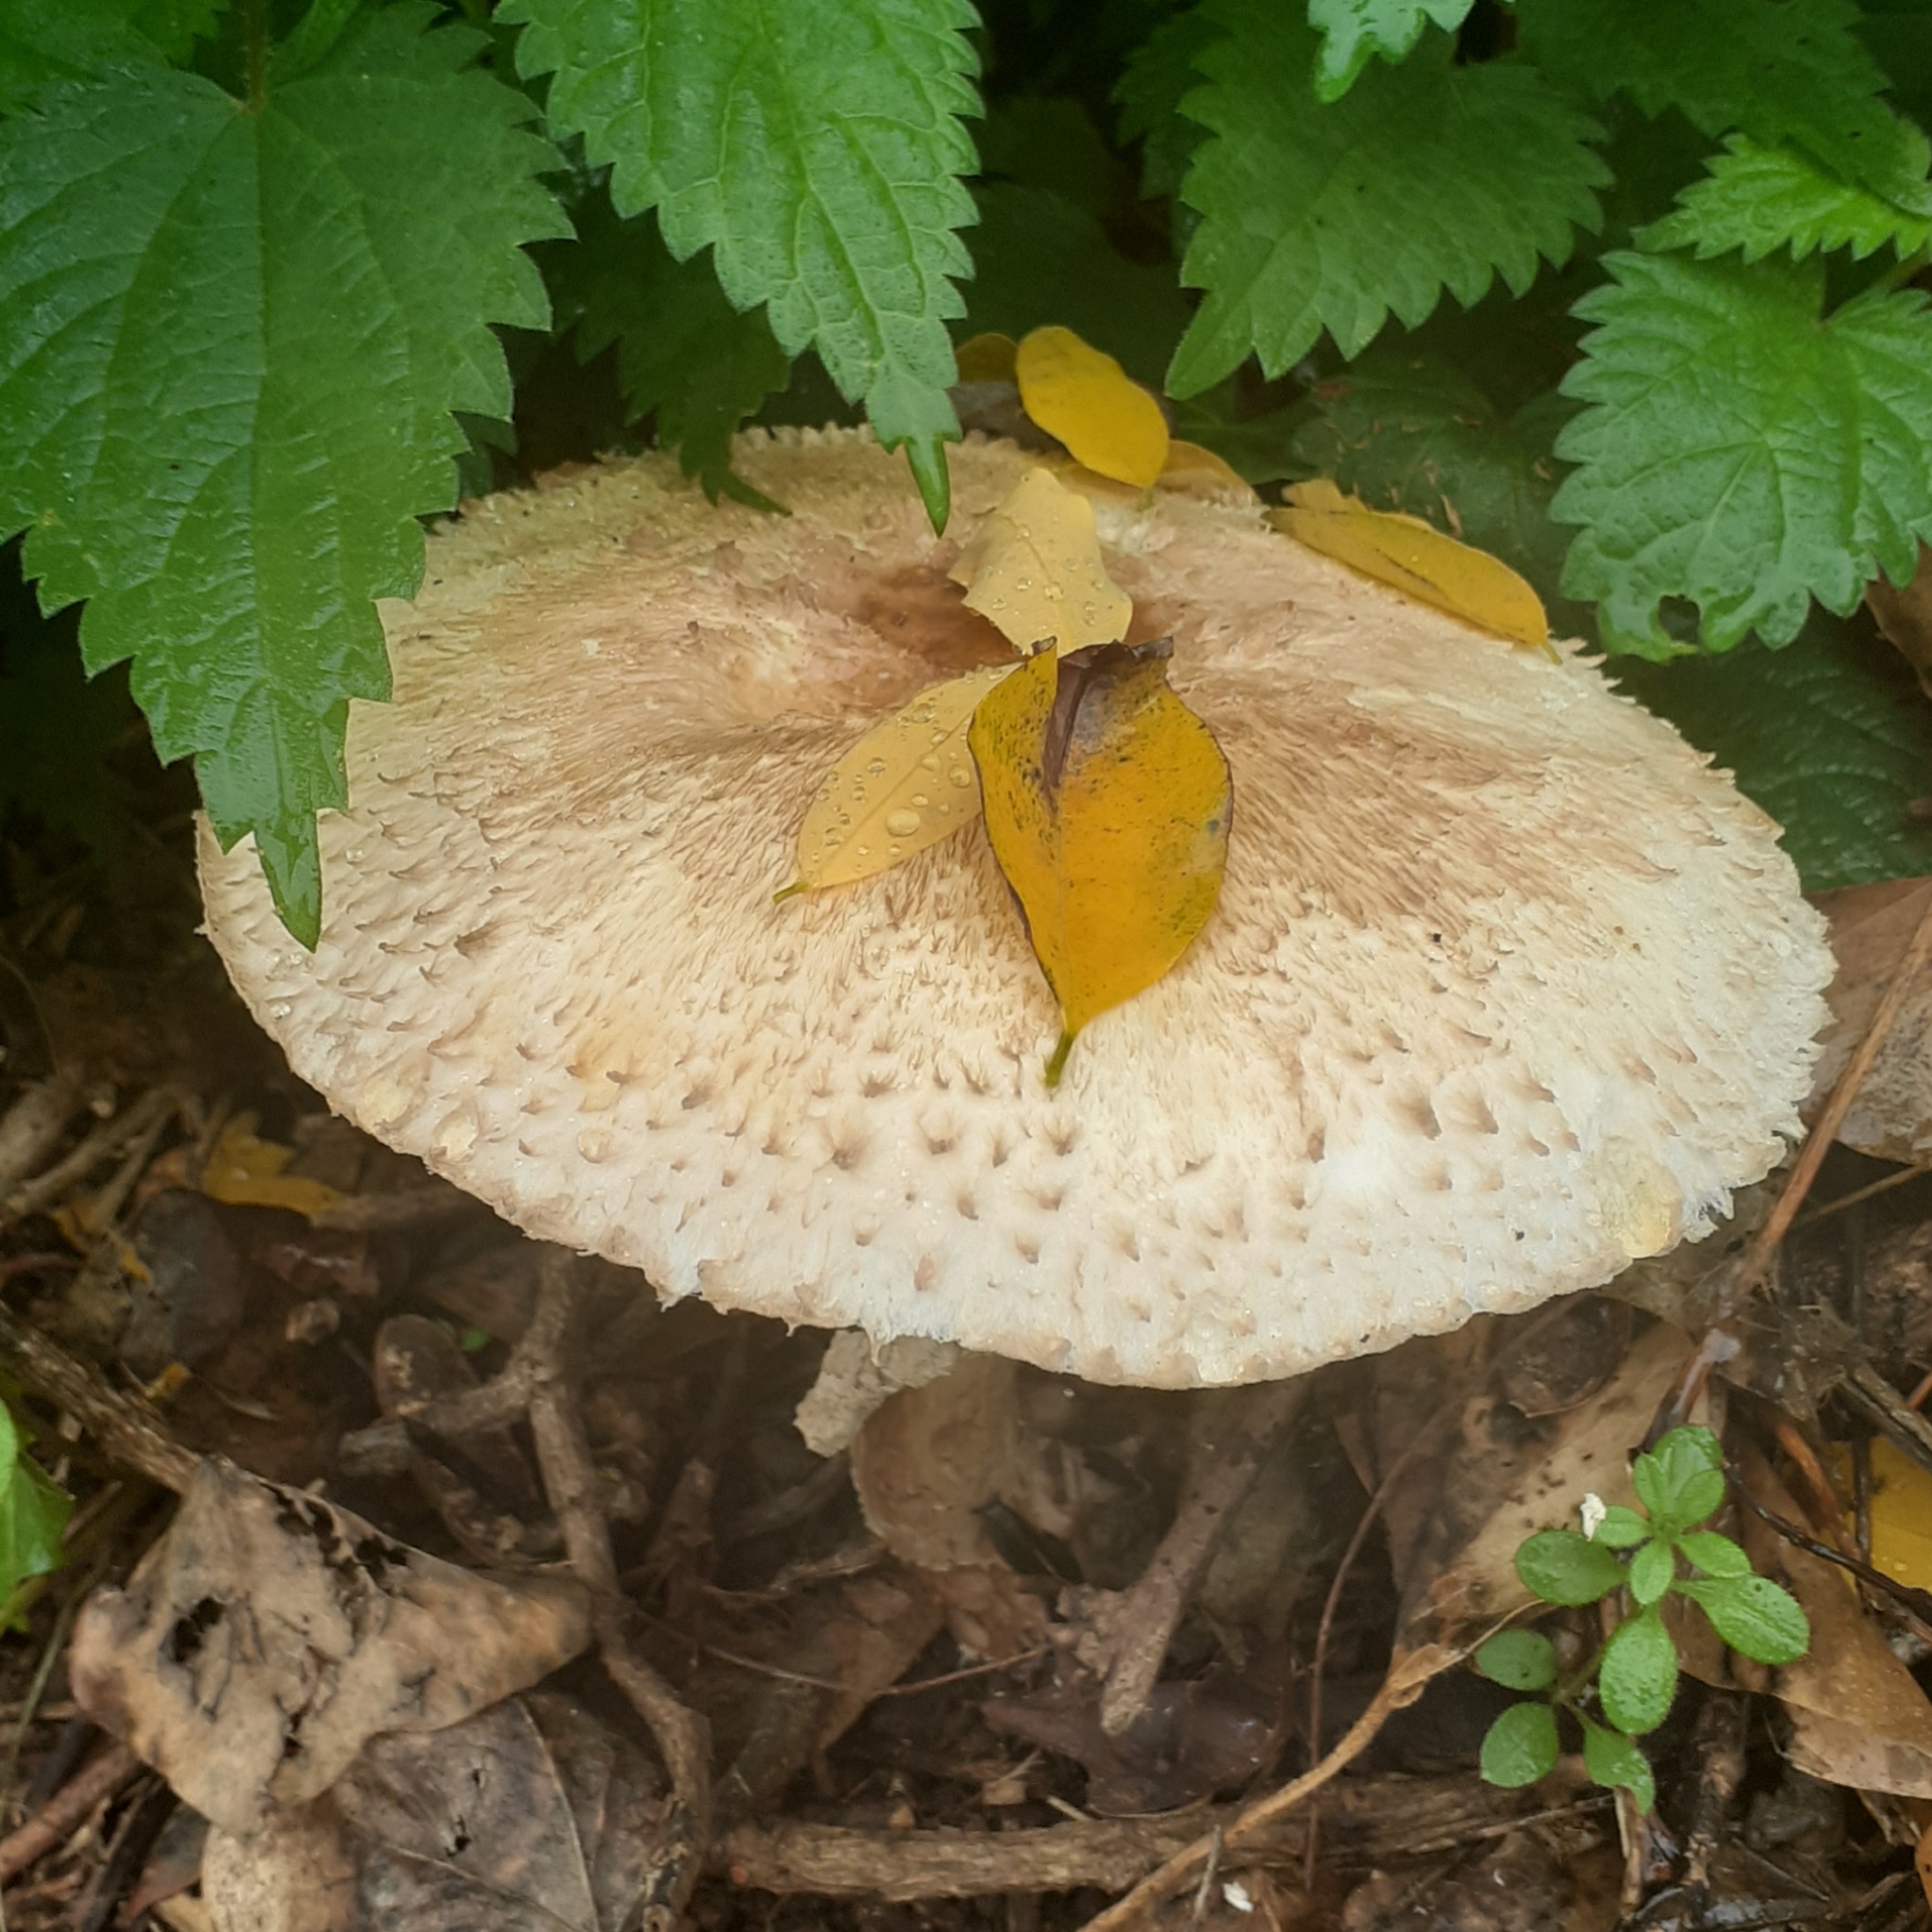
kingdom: Fungi
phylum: Basidiomycota
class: Agaricomycetes
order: Agaricales
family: Agaricaceae
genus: Chlorophyllum
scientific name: Chlorophyllum rhacodes
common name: Shaggy parasol
